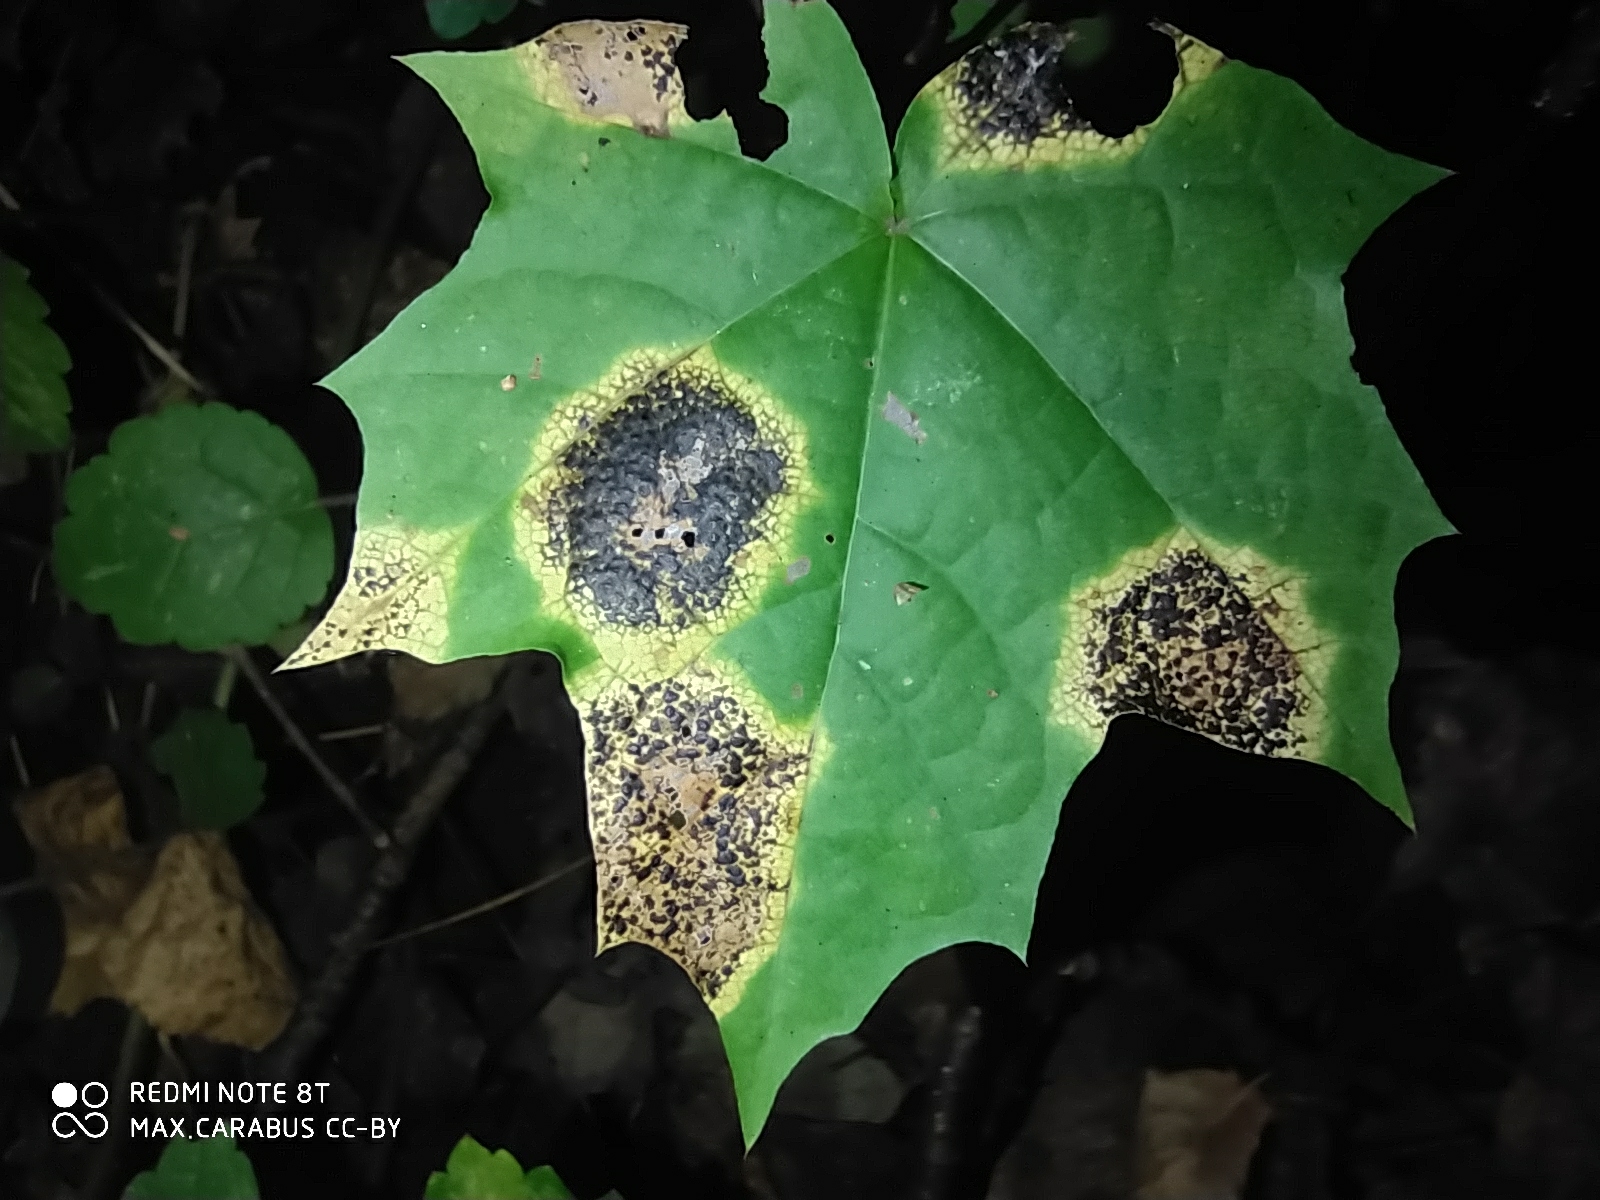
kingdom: Fungi
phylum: Ascomycota
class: Leotiomycetes
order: Rhytismatales
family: Rhytismataceae
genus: Rhytisma
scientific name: Rhytisma acerinum
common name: European tar spot
